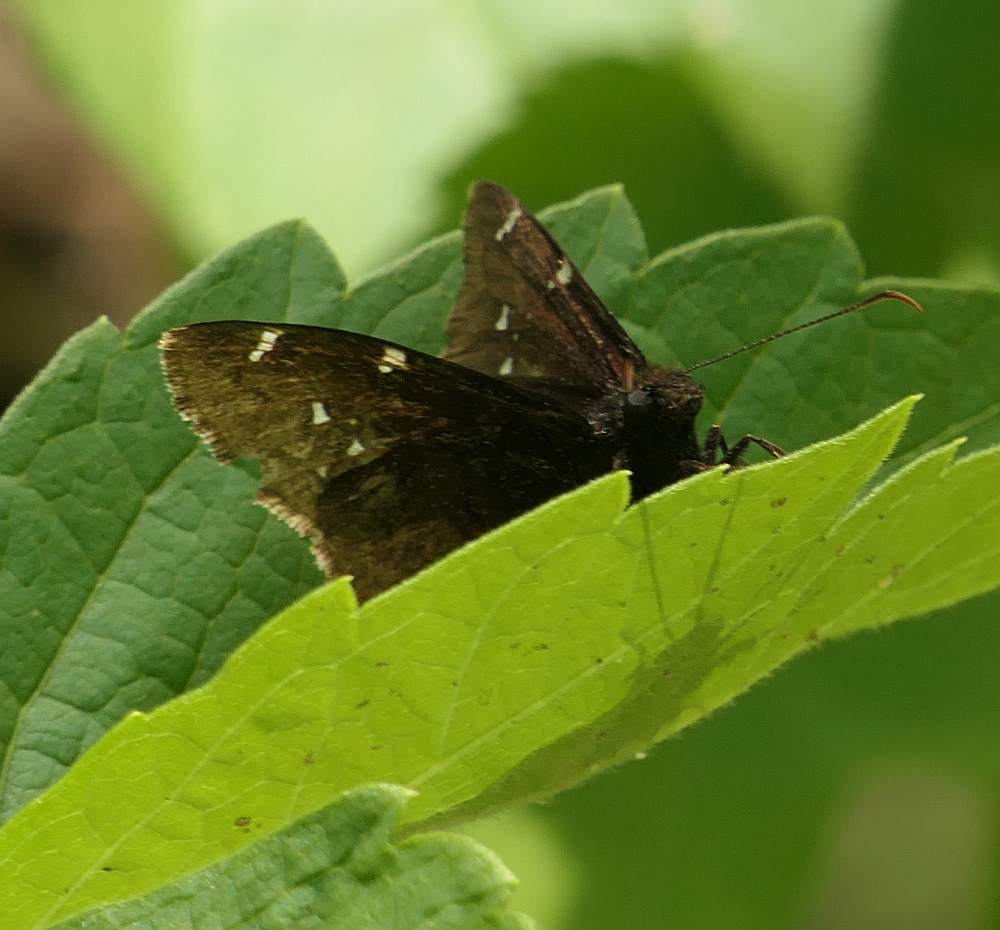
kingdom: Animalia
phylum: Arthropoda
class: Insecta
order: Lepidoptera
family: Hesperiidae
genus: Thorybes
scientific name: Thorybes pylades
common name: Northern cloudywing
